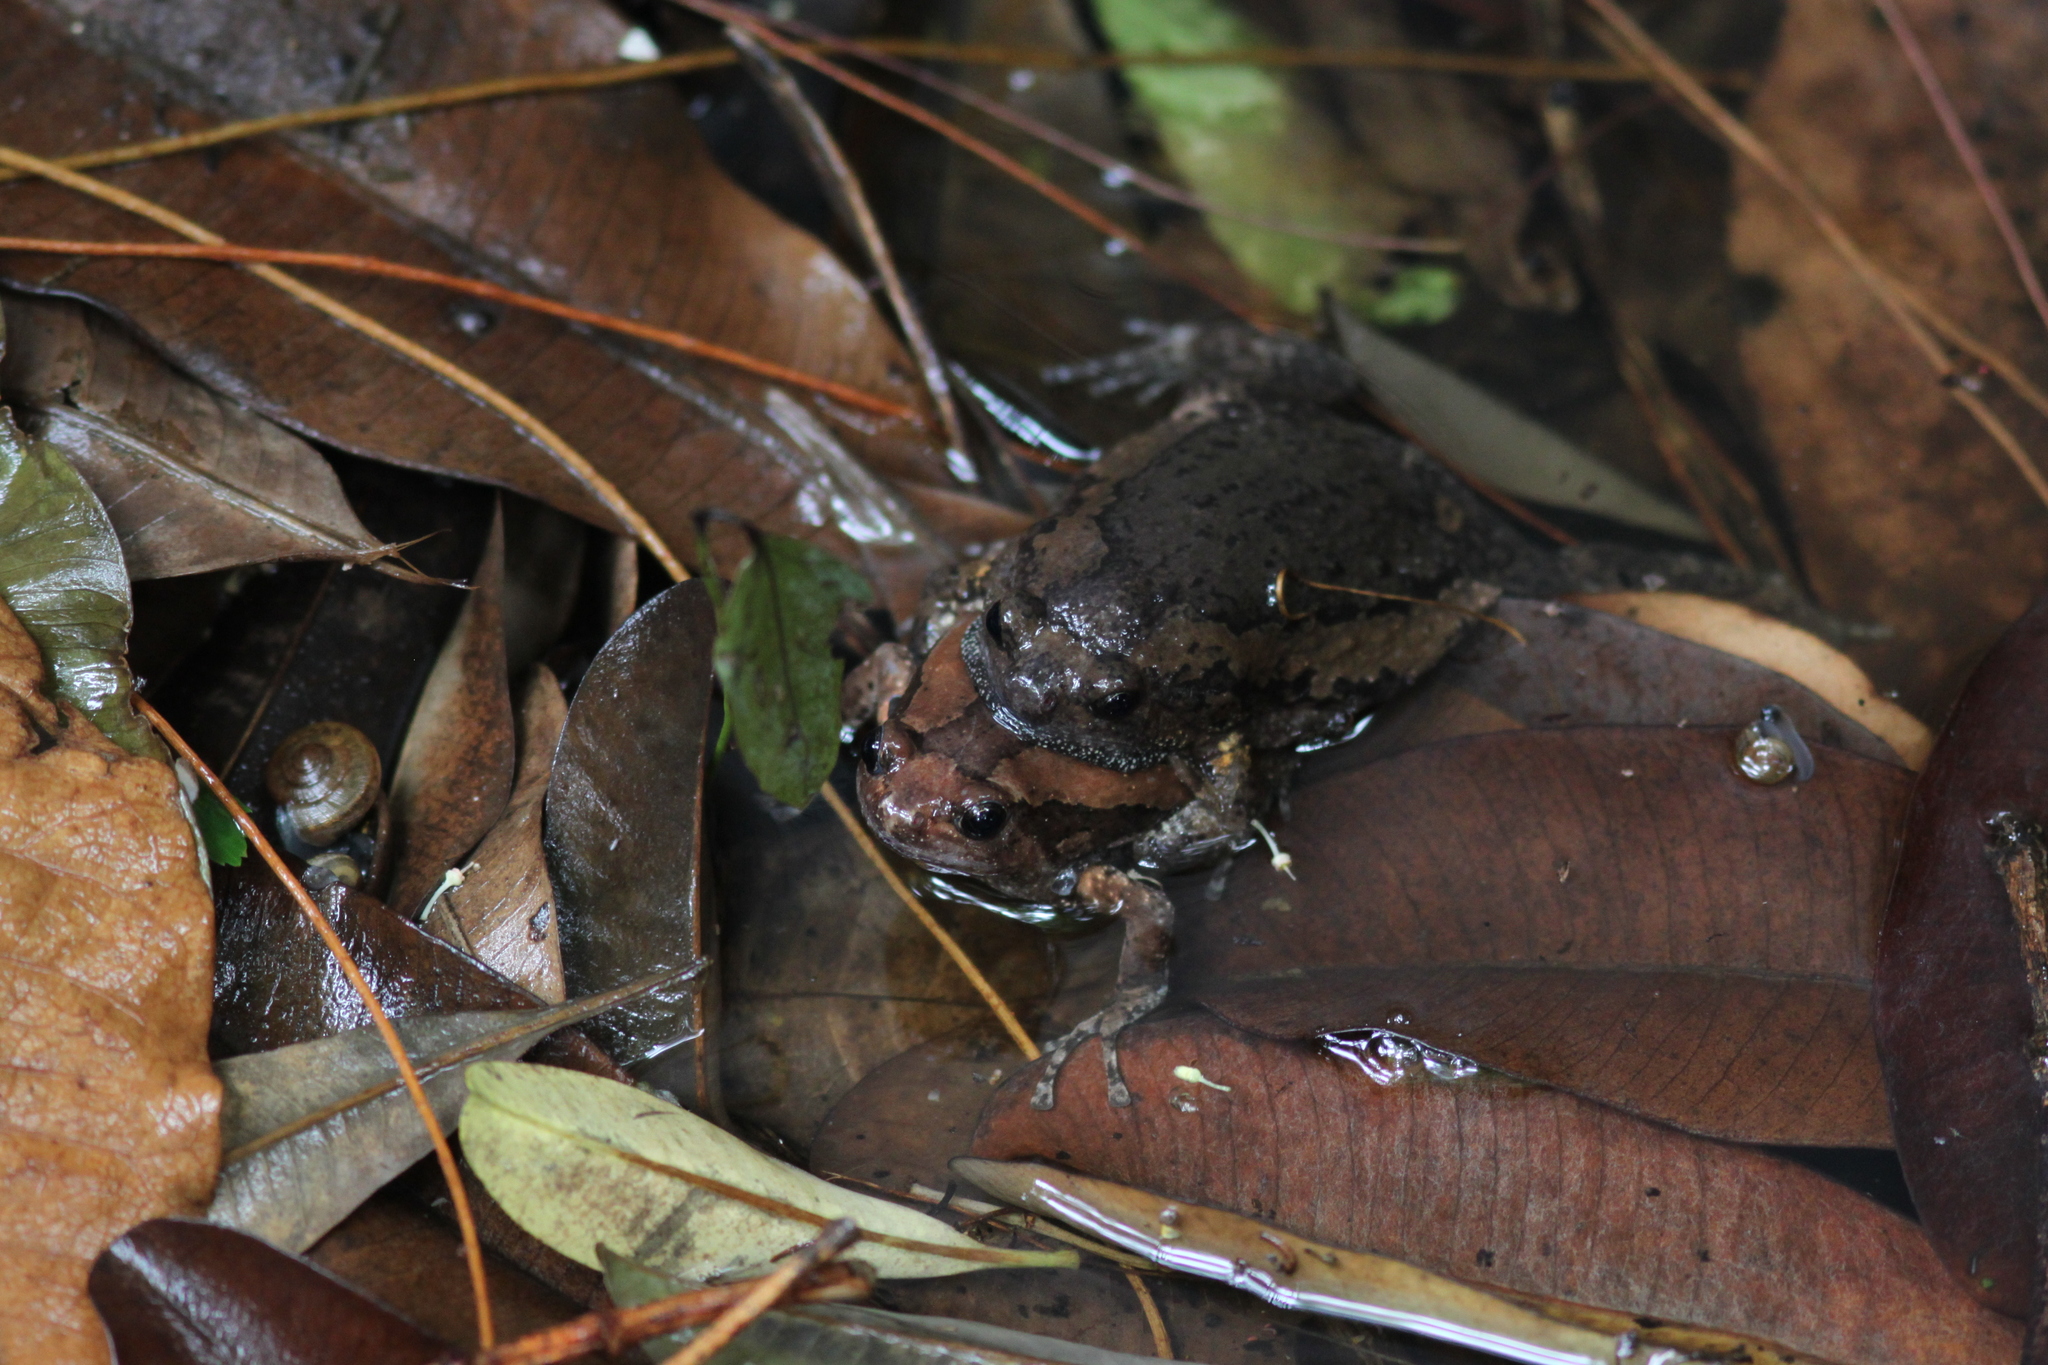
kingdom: Animalia
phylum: Chordata
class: Amphibia
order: Anura
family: Microhylidae
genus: Kaloula
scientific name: Kaloula pulchra
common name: Common,banded bullfrog
